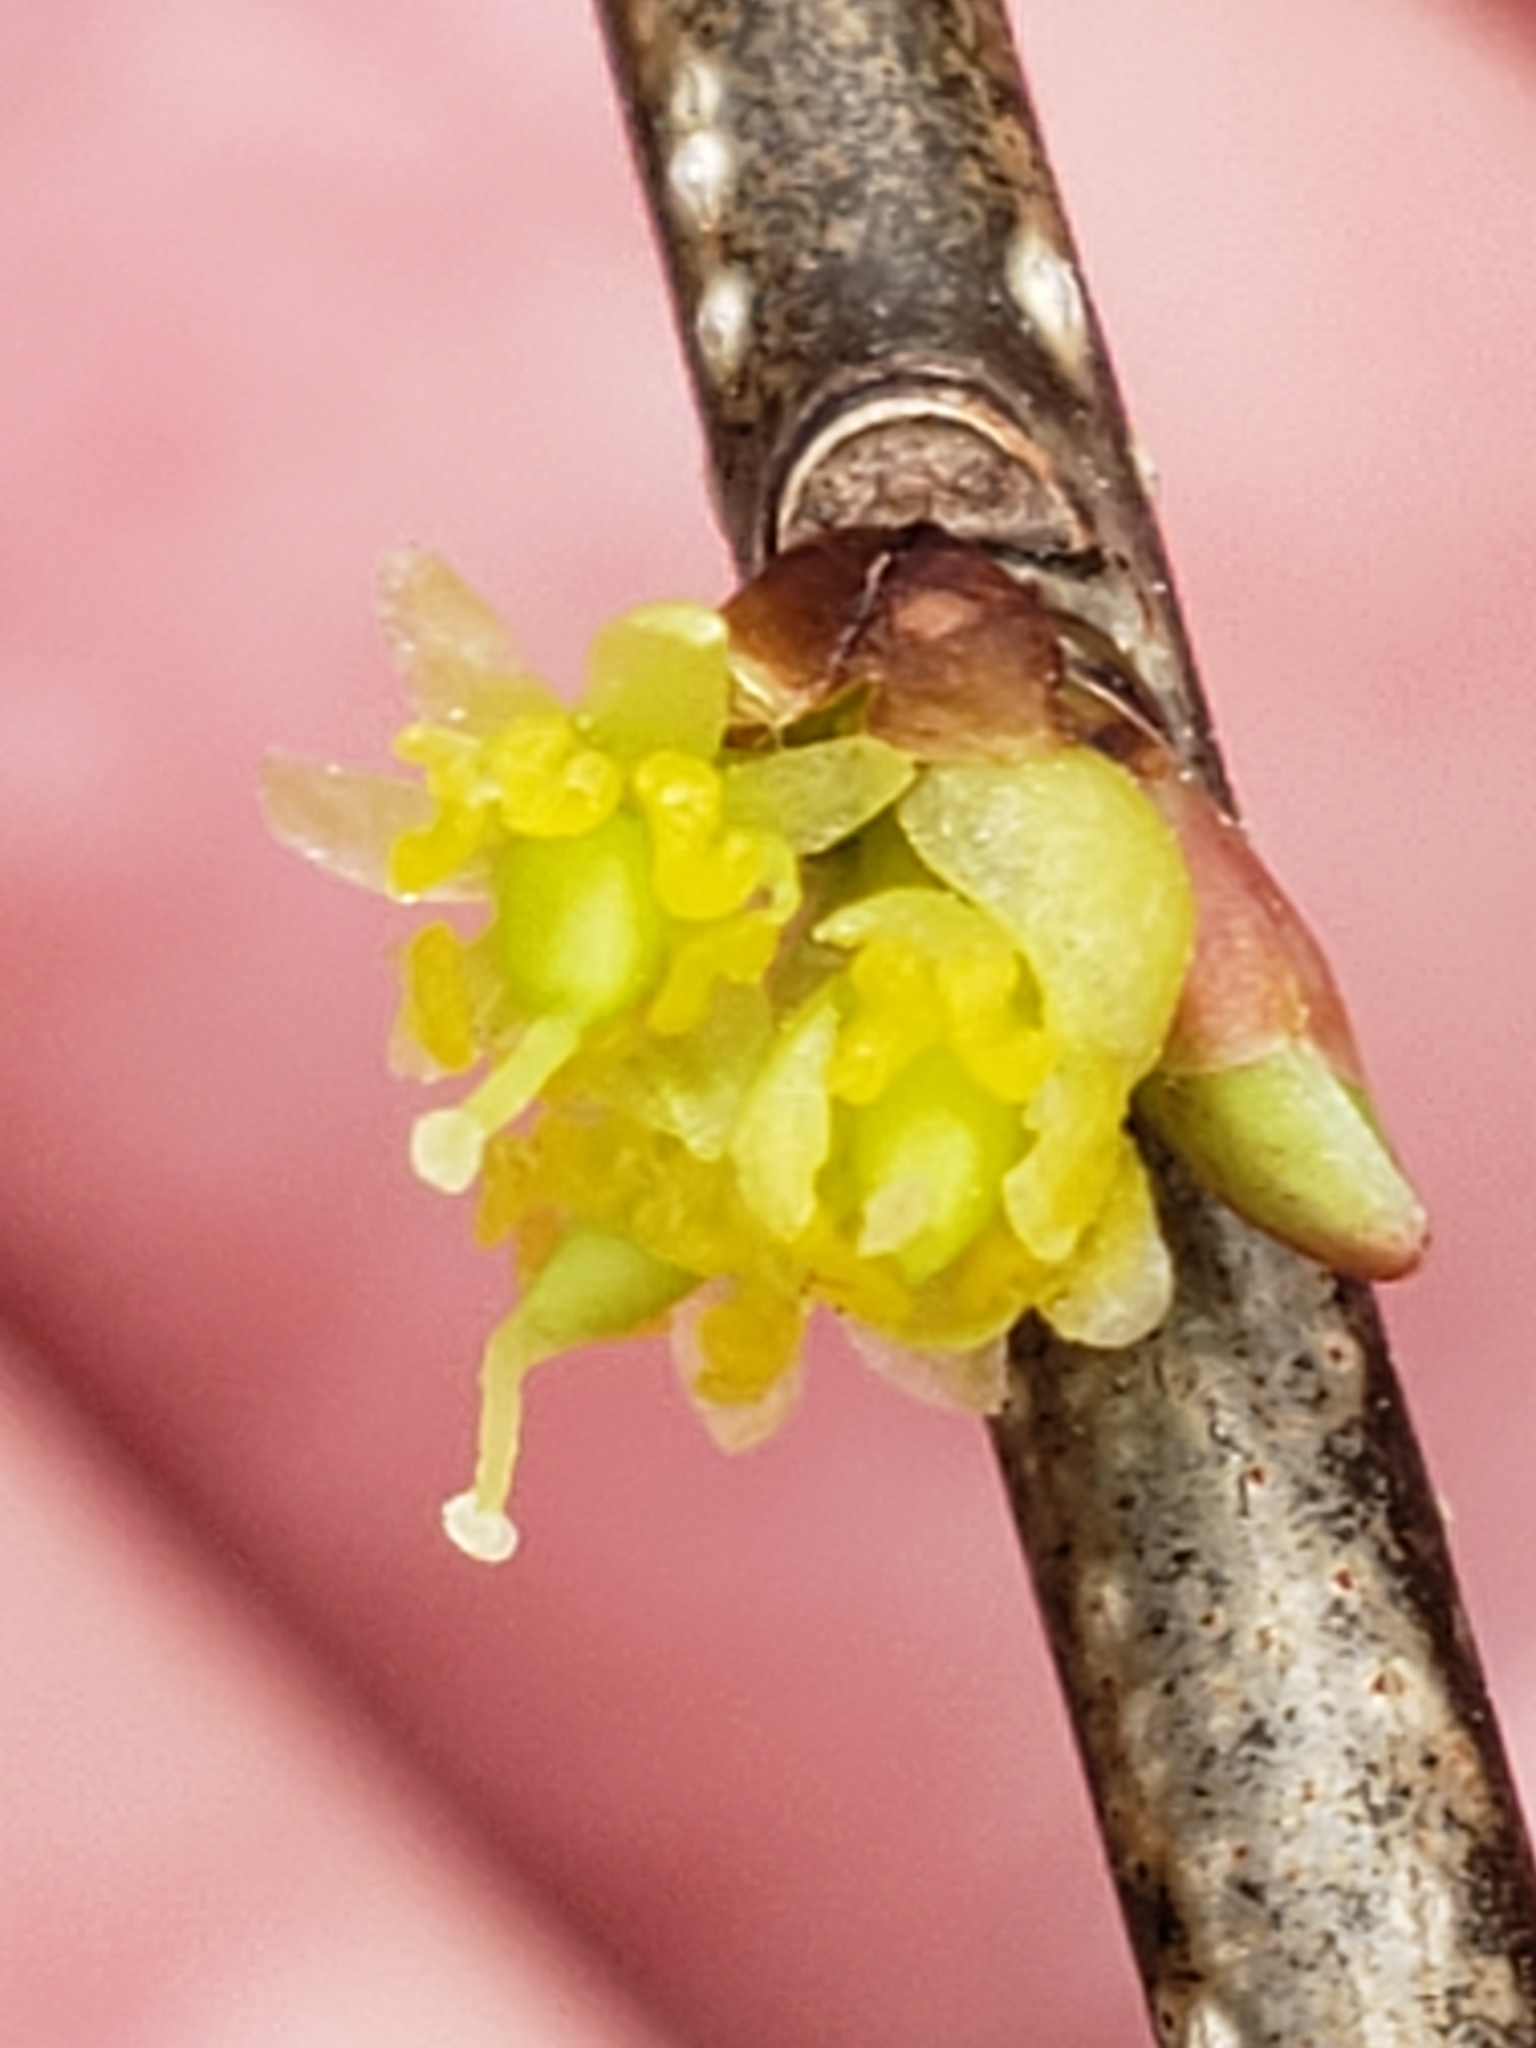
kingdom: Plantae
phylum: Tracheophyta
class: Magnoliopsida
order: Laurales
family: Lauraceae
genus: Lindera
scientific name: Lindera benzoin
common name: Spicebush
